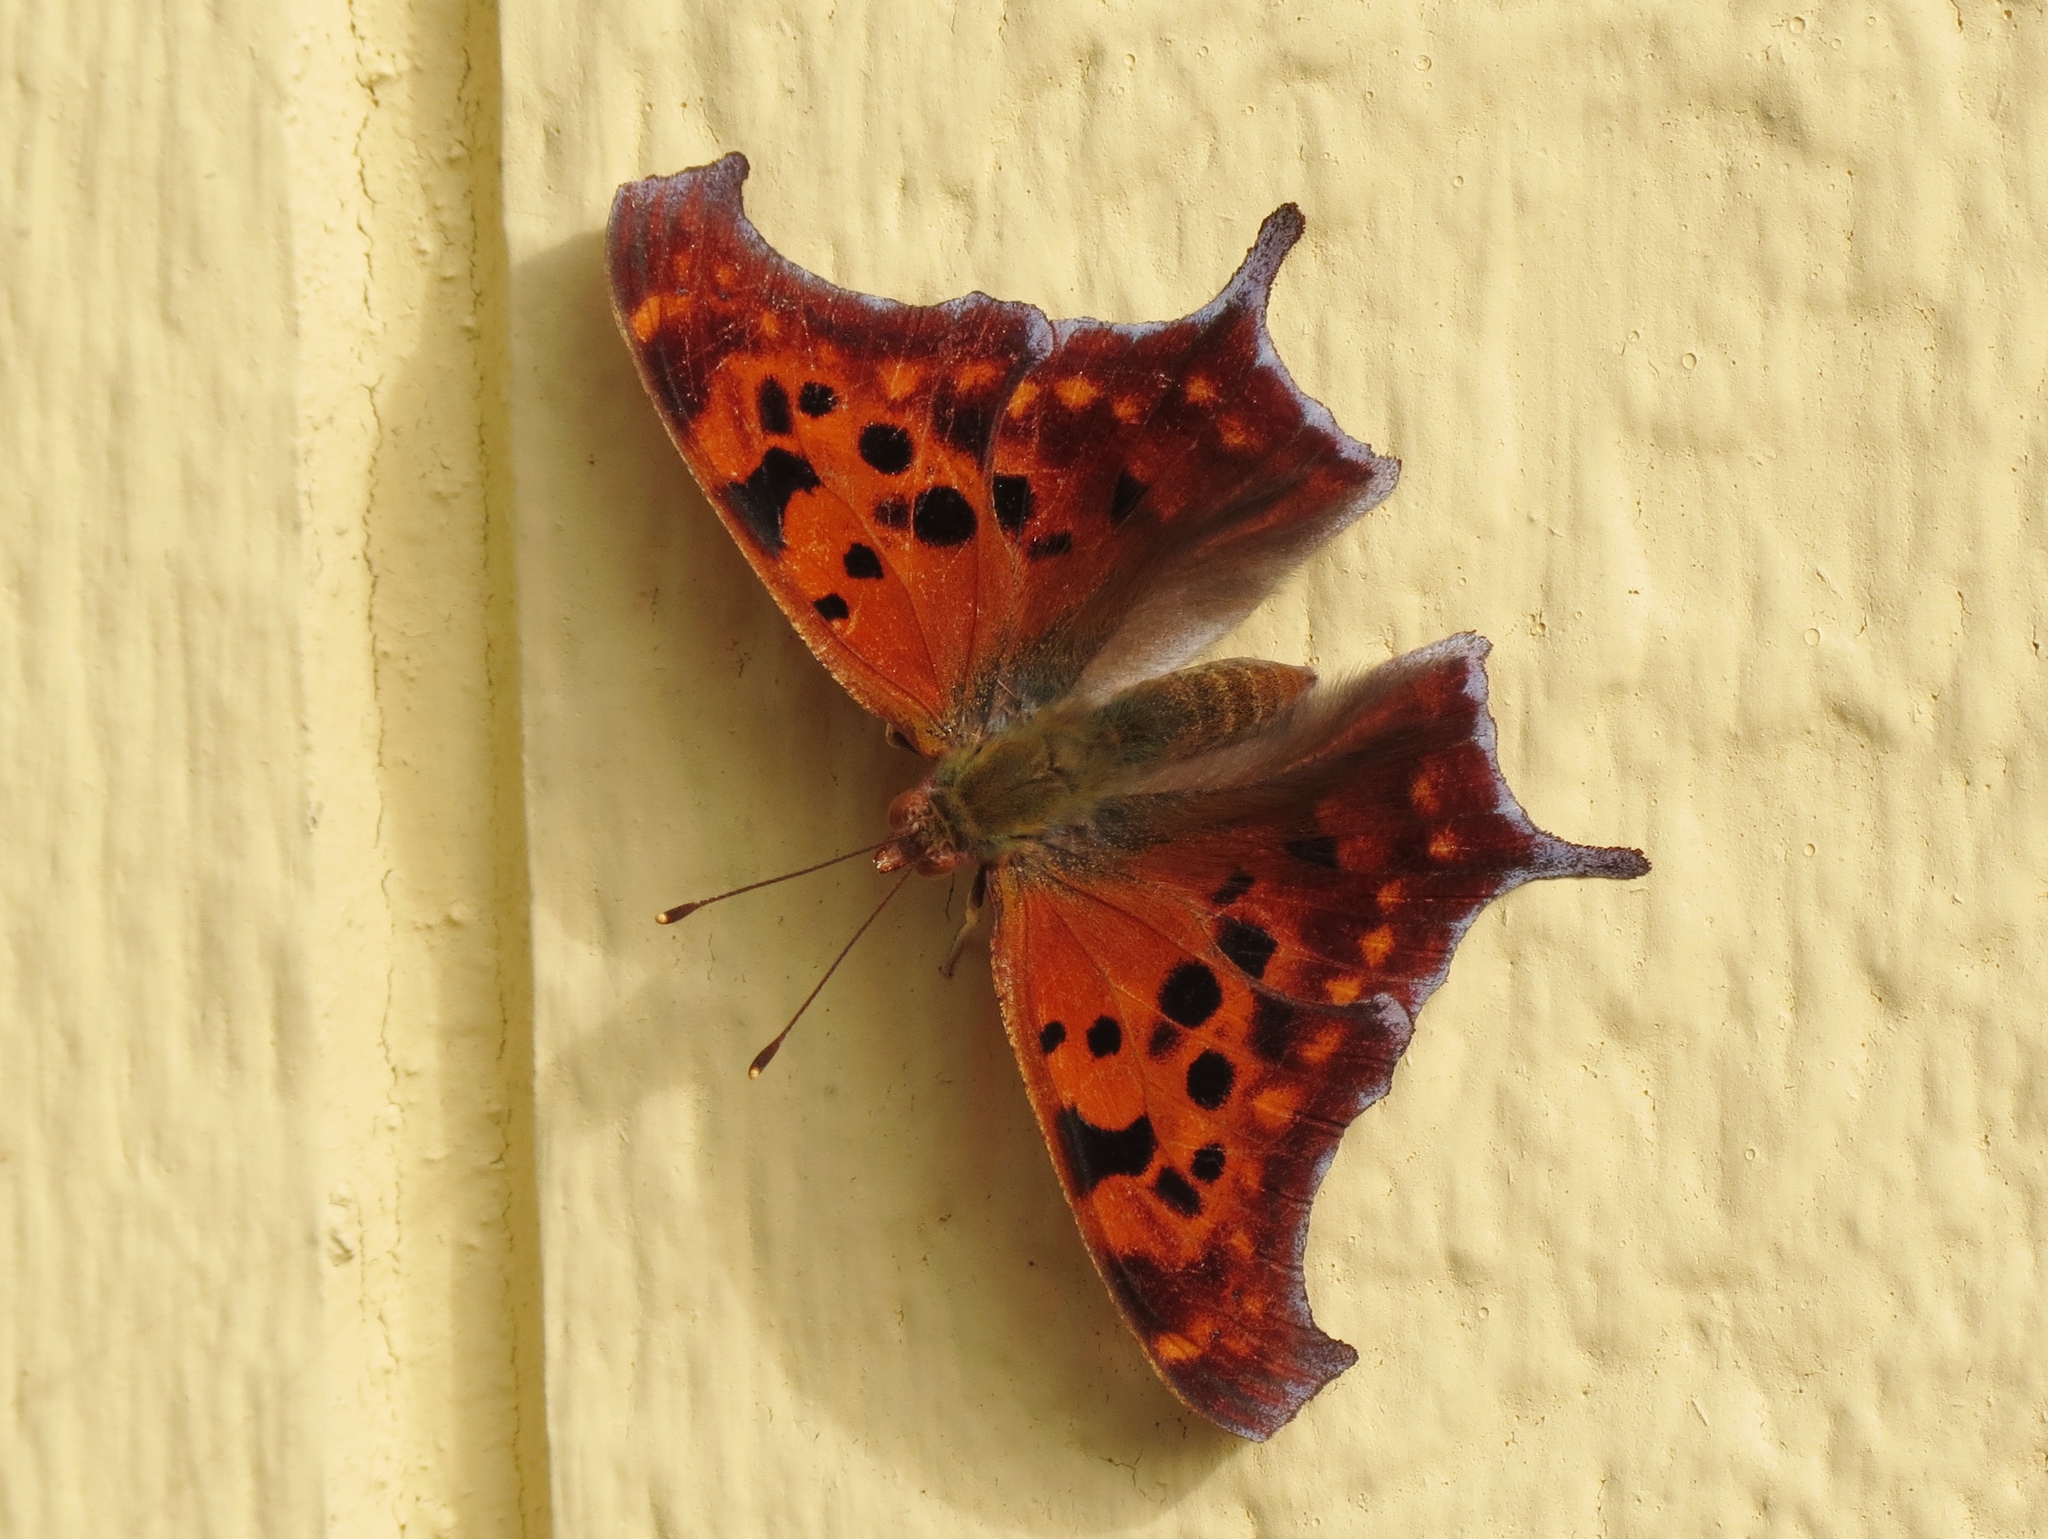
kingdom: Animalia
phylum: Arthropoda
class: Insecta
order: Lepidoptera
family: Nymphalidae
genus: Polygonia
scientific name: Polygonia interrogationis
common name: Question mark
